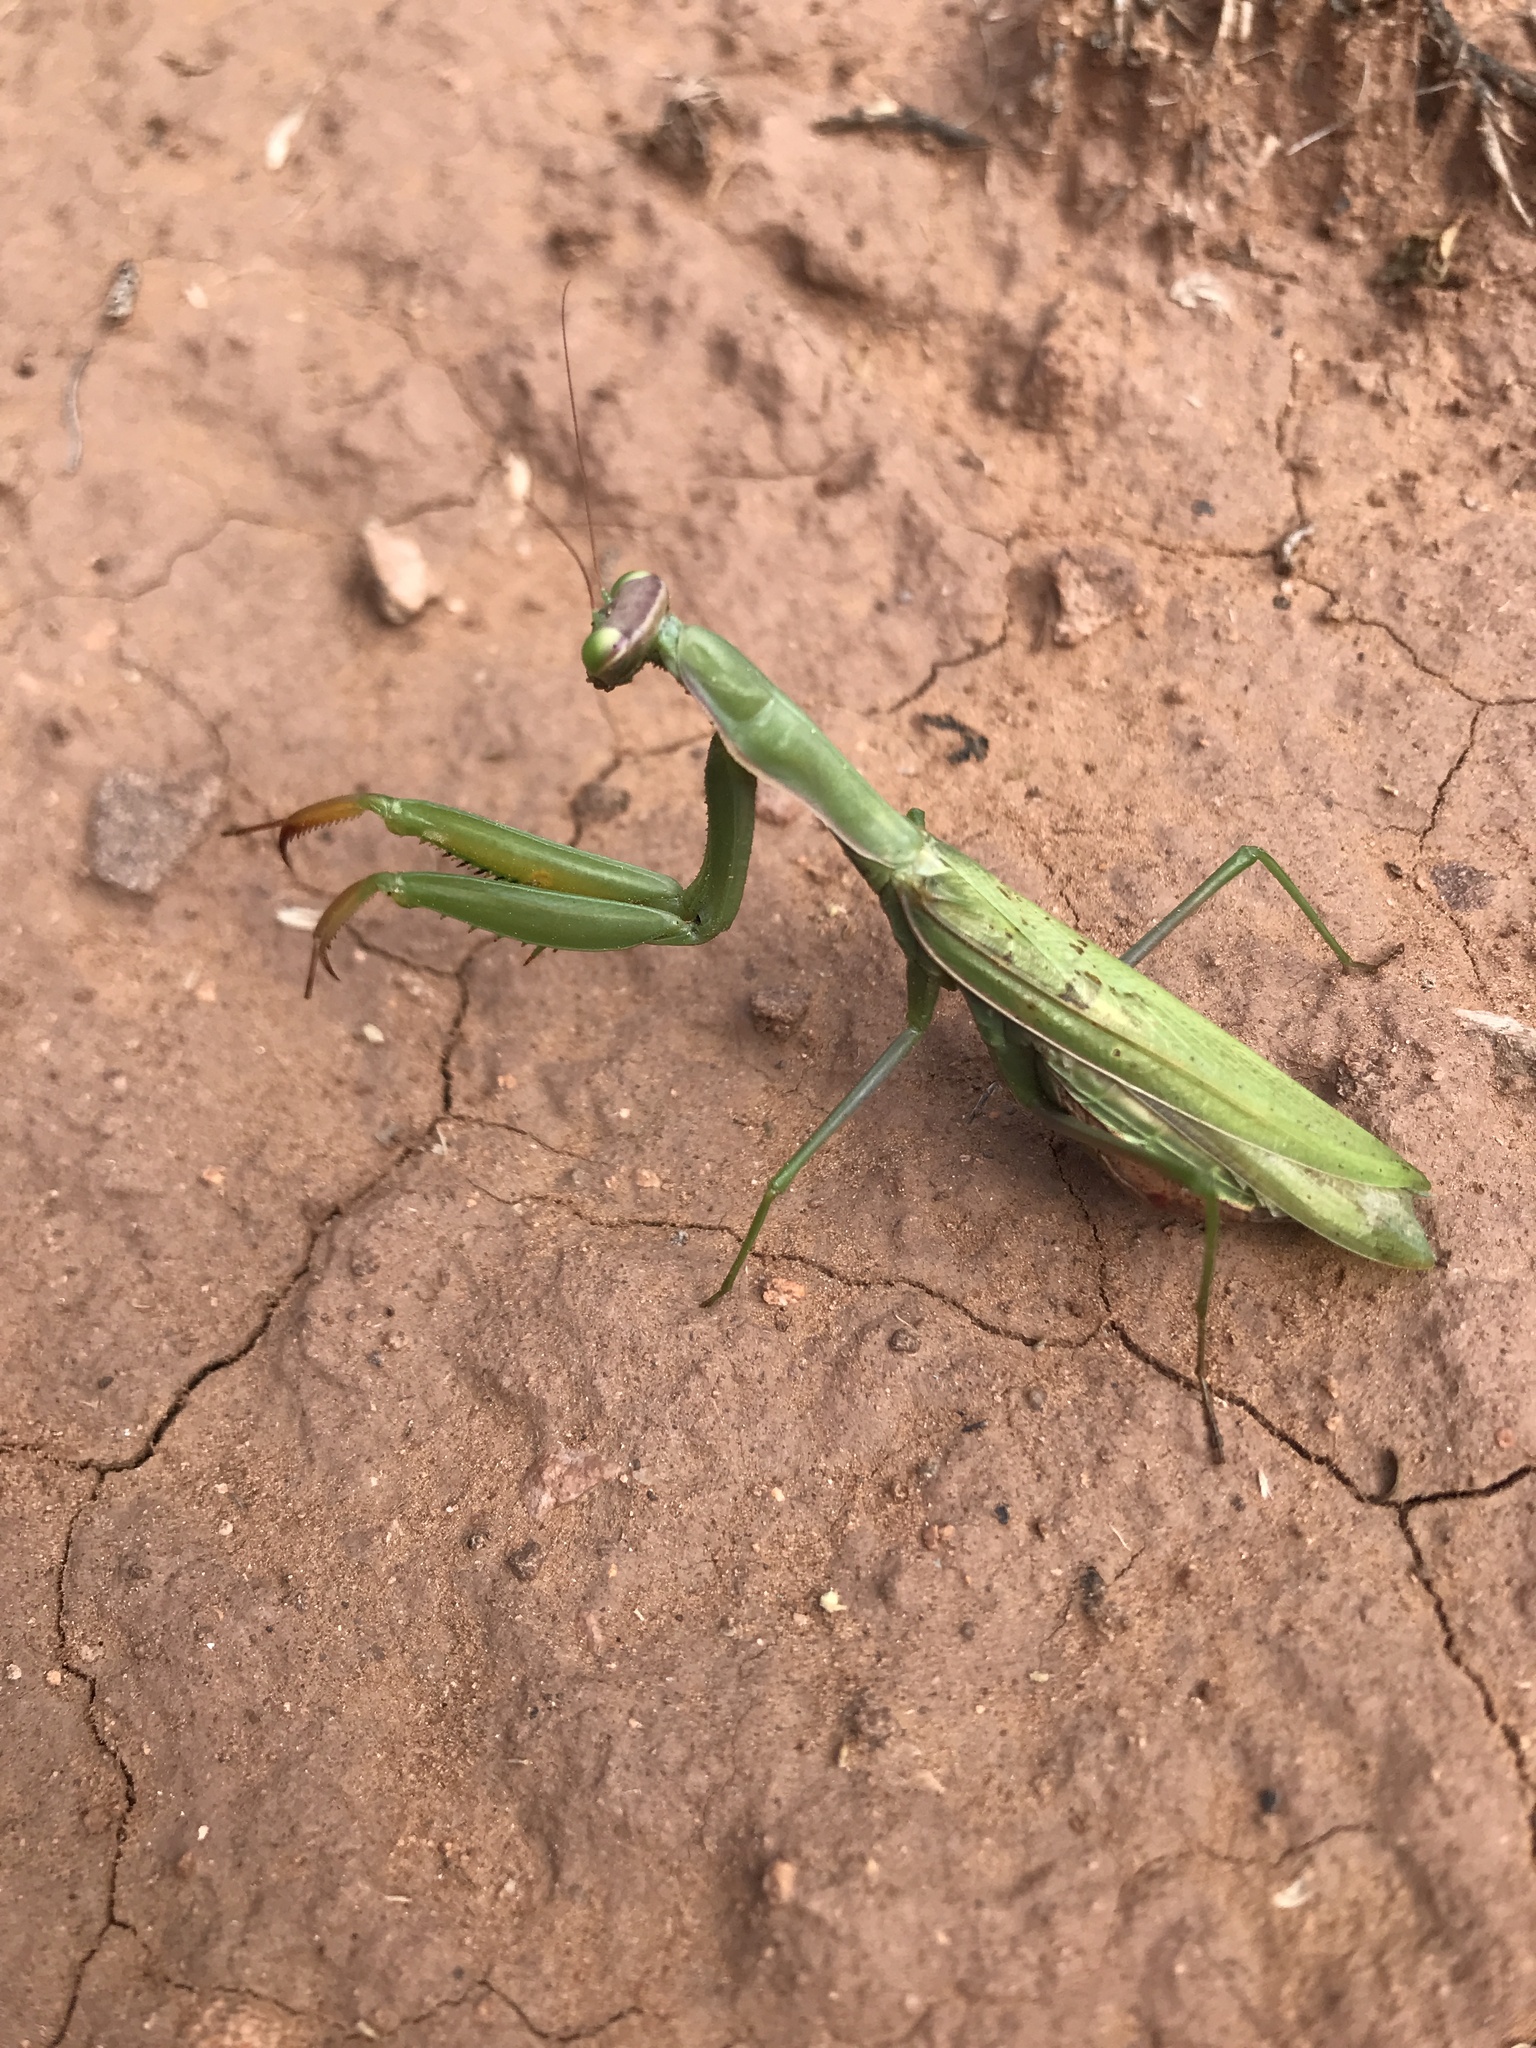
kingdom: Animalia
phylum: Arthropoda
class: Insecta
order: Mantodea
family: Mantidae
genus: Mantis
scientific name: Mantis religiosa
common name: Praying mantis
